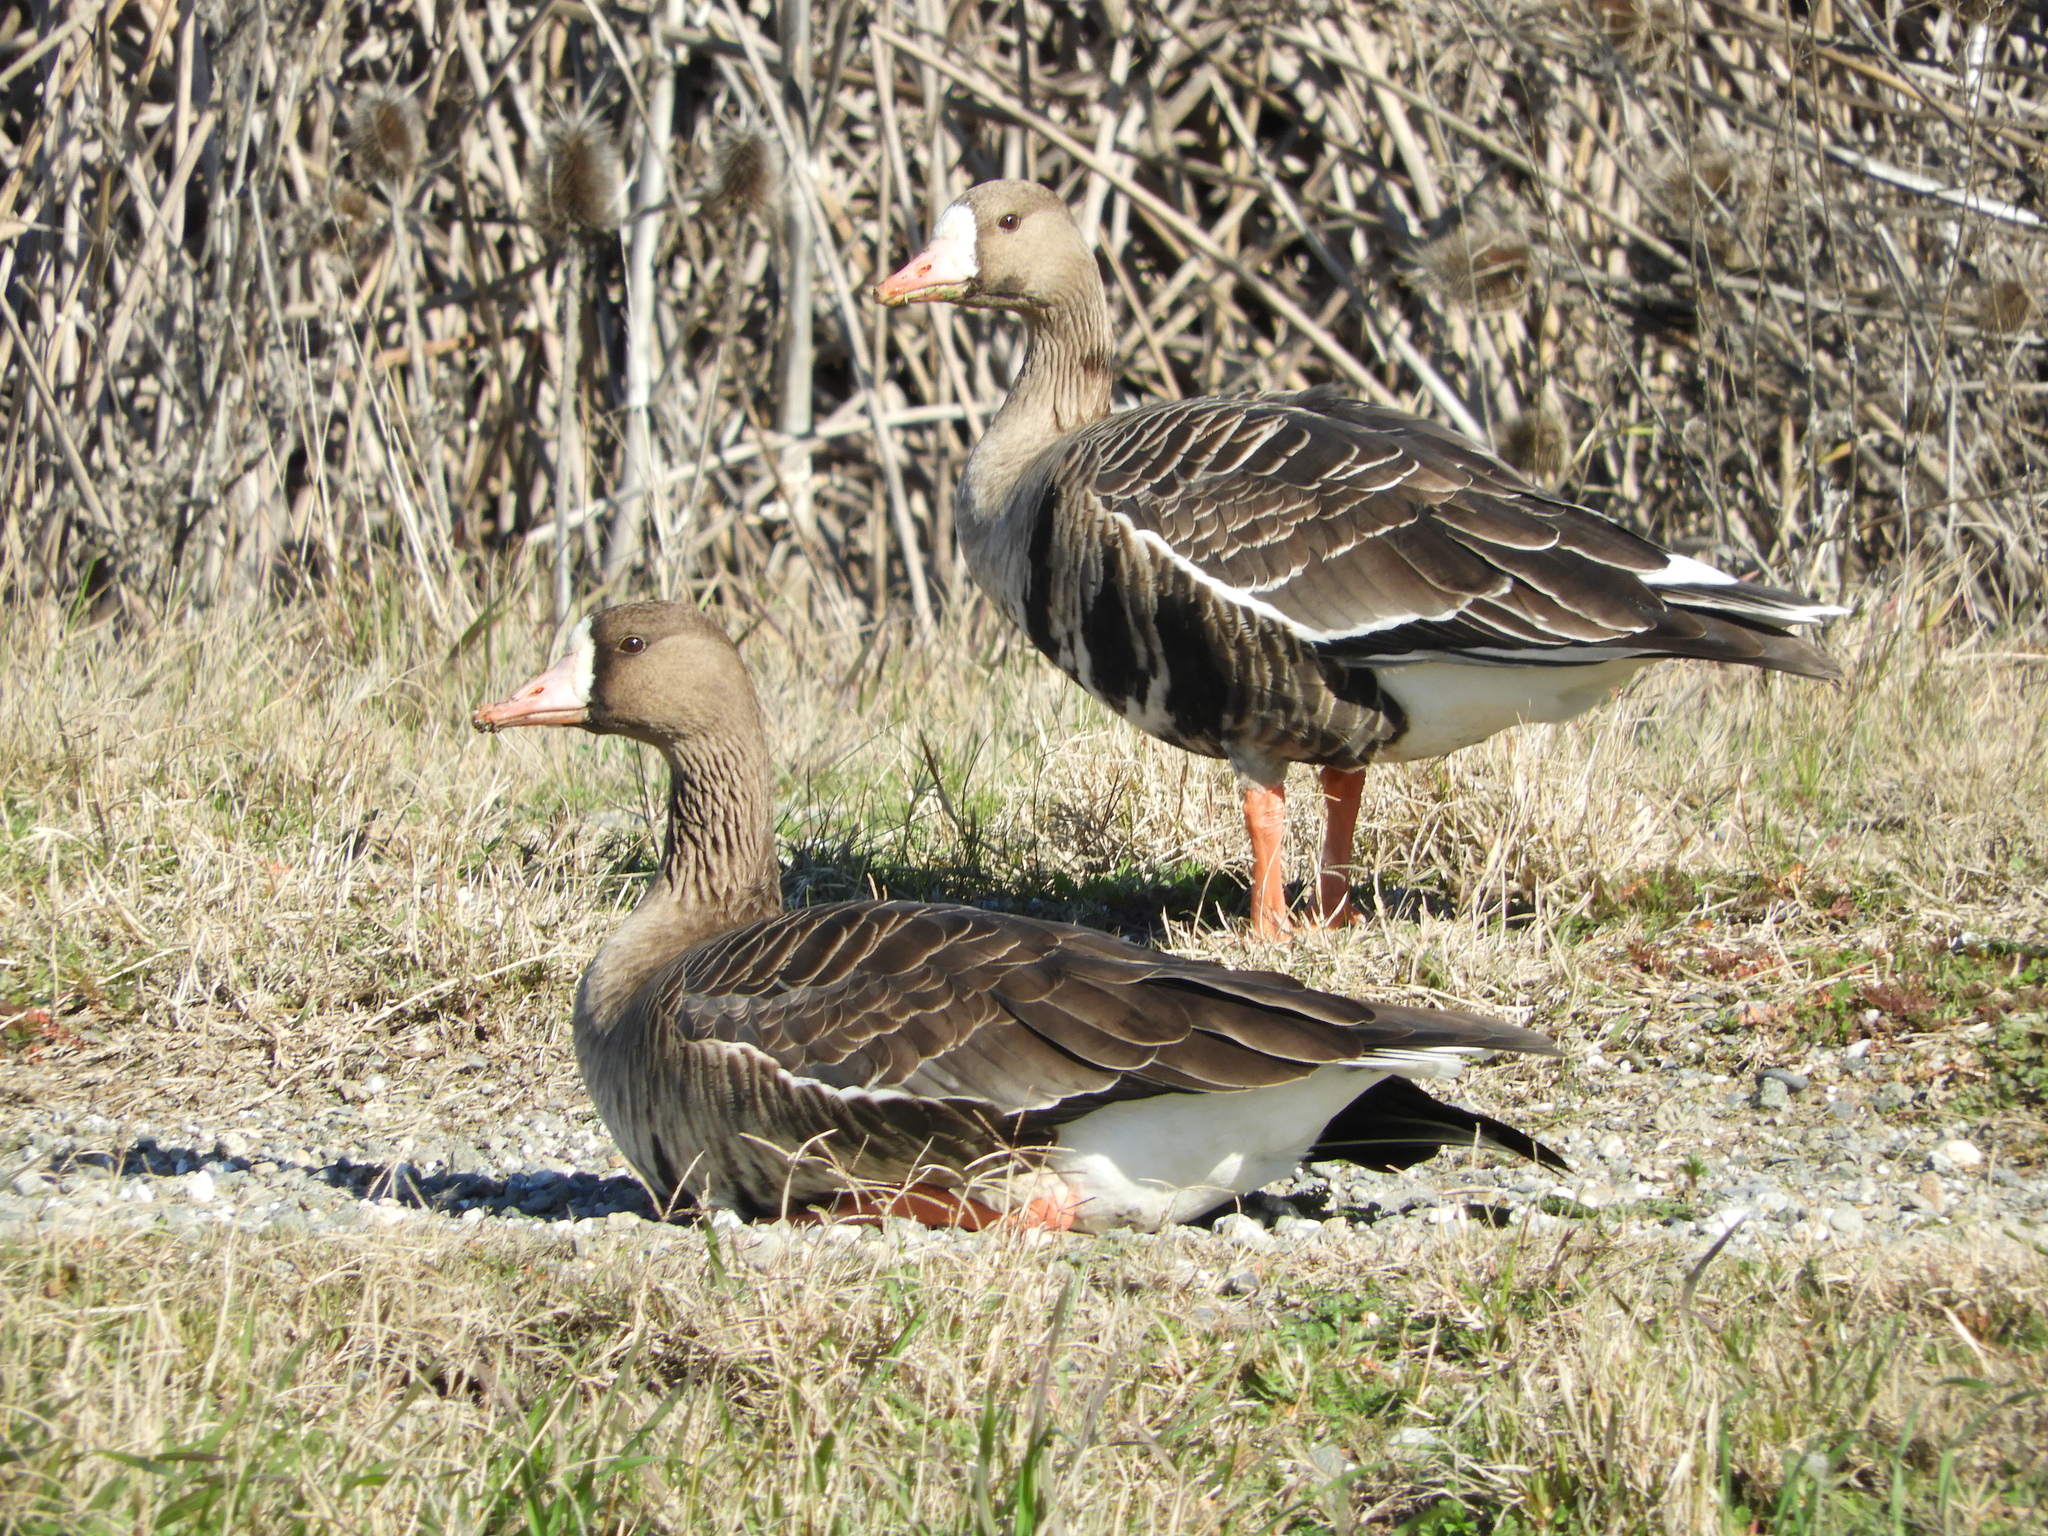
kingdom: Animalia
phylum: Chordata
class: Aves
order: Anseriformes
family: Anatidae
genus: Anser
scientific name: Anser albifrons
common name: Greater white-fronted goose
